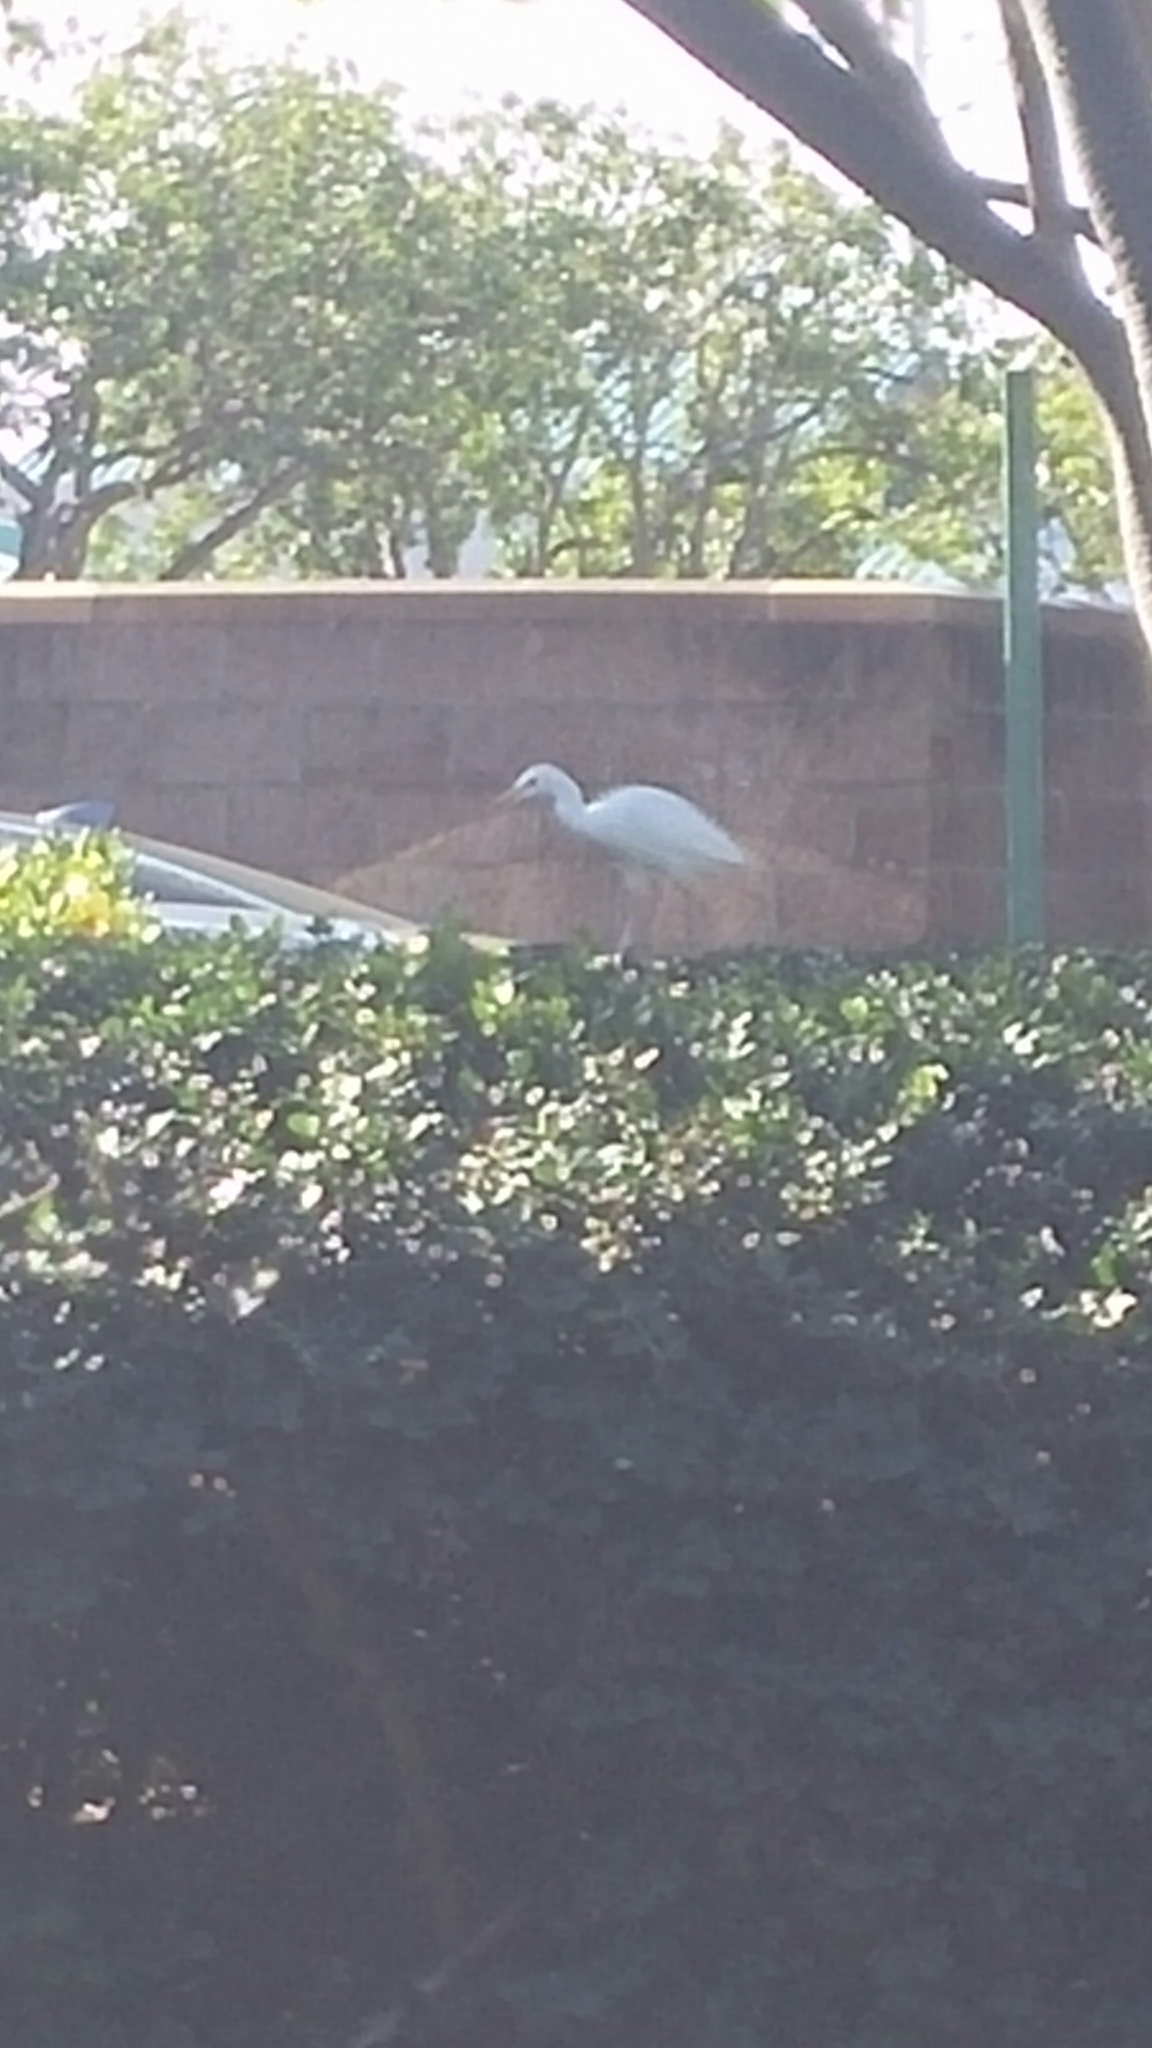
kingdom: Animalia
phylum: Chordata
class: Aves
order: Pelecaniformes
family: Ardeidae
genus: Bubulcus
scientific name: Bubulcus ibis
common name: Cattle egret
